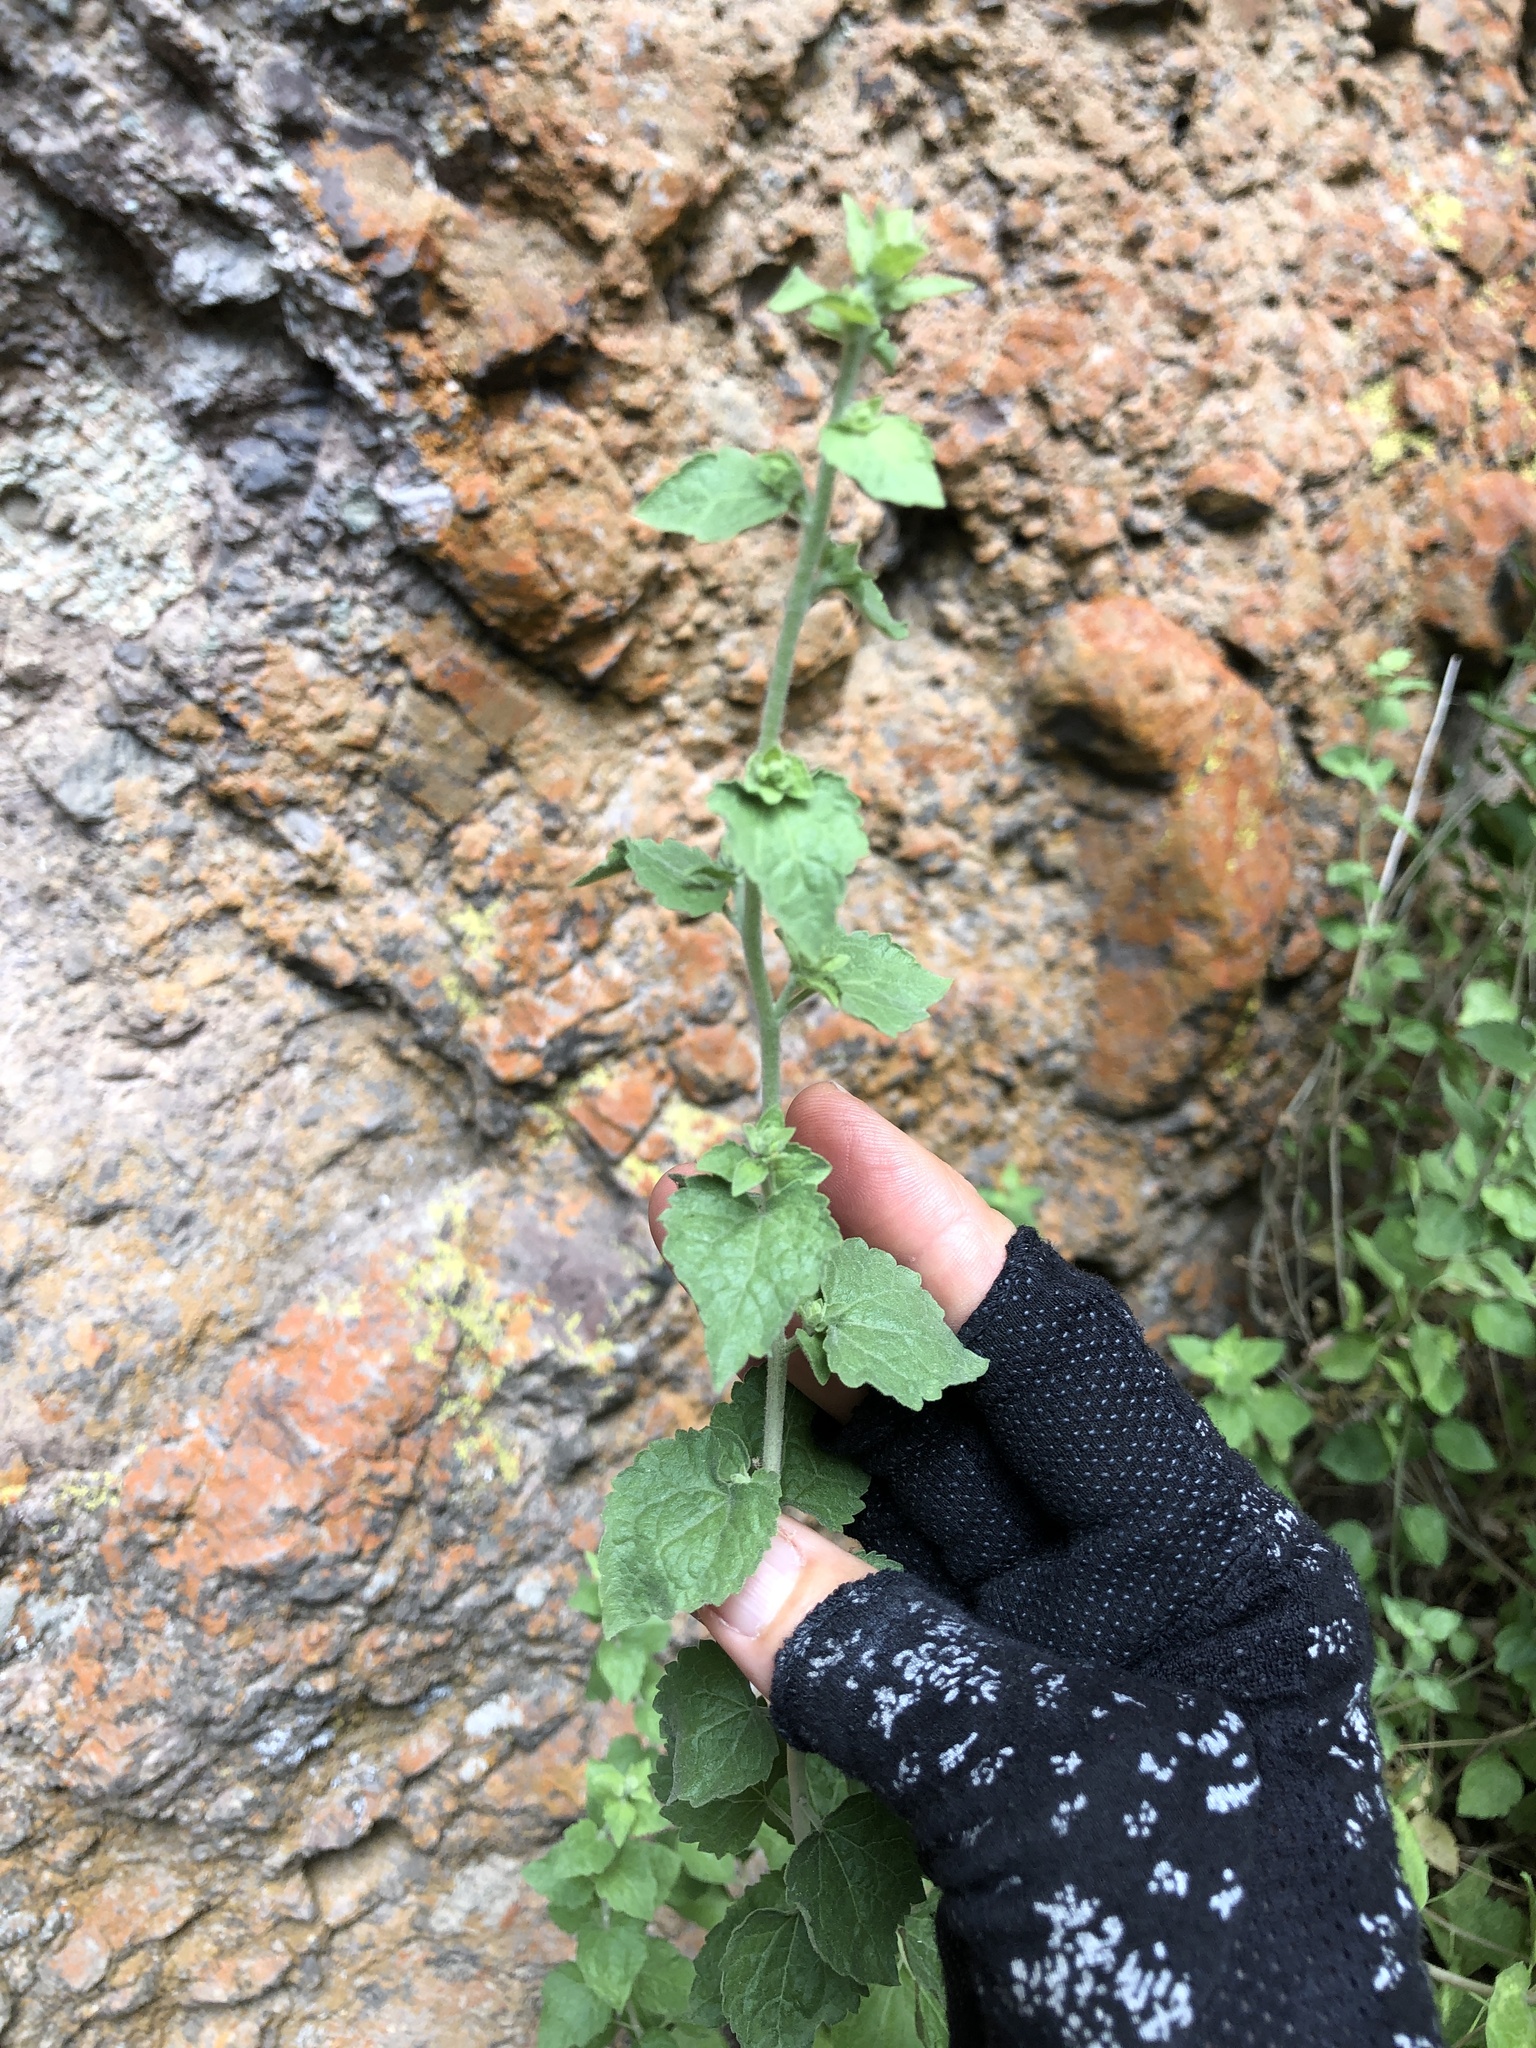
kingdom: Plantae
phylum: Tracheophyta
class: Magnoliopsida
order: Asterales
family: Asteraceae
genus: Brickellia
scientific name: Brickellia californica
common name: California brickellbush
